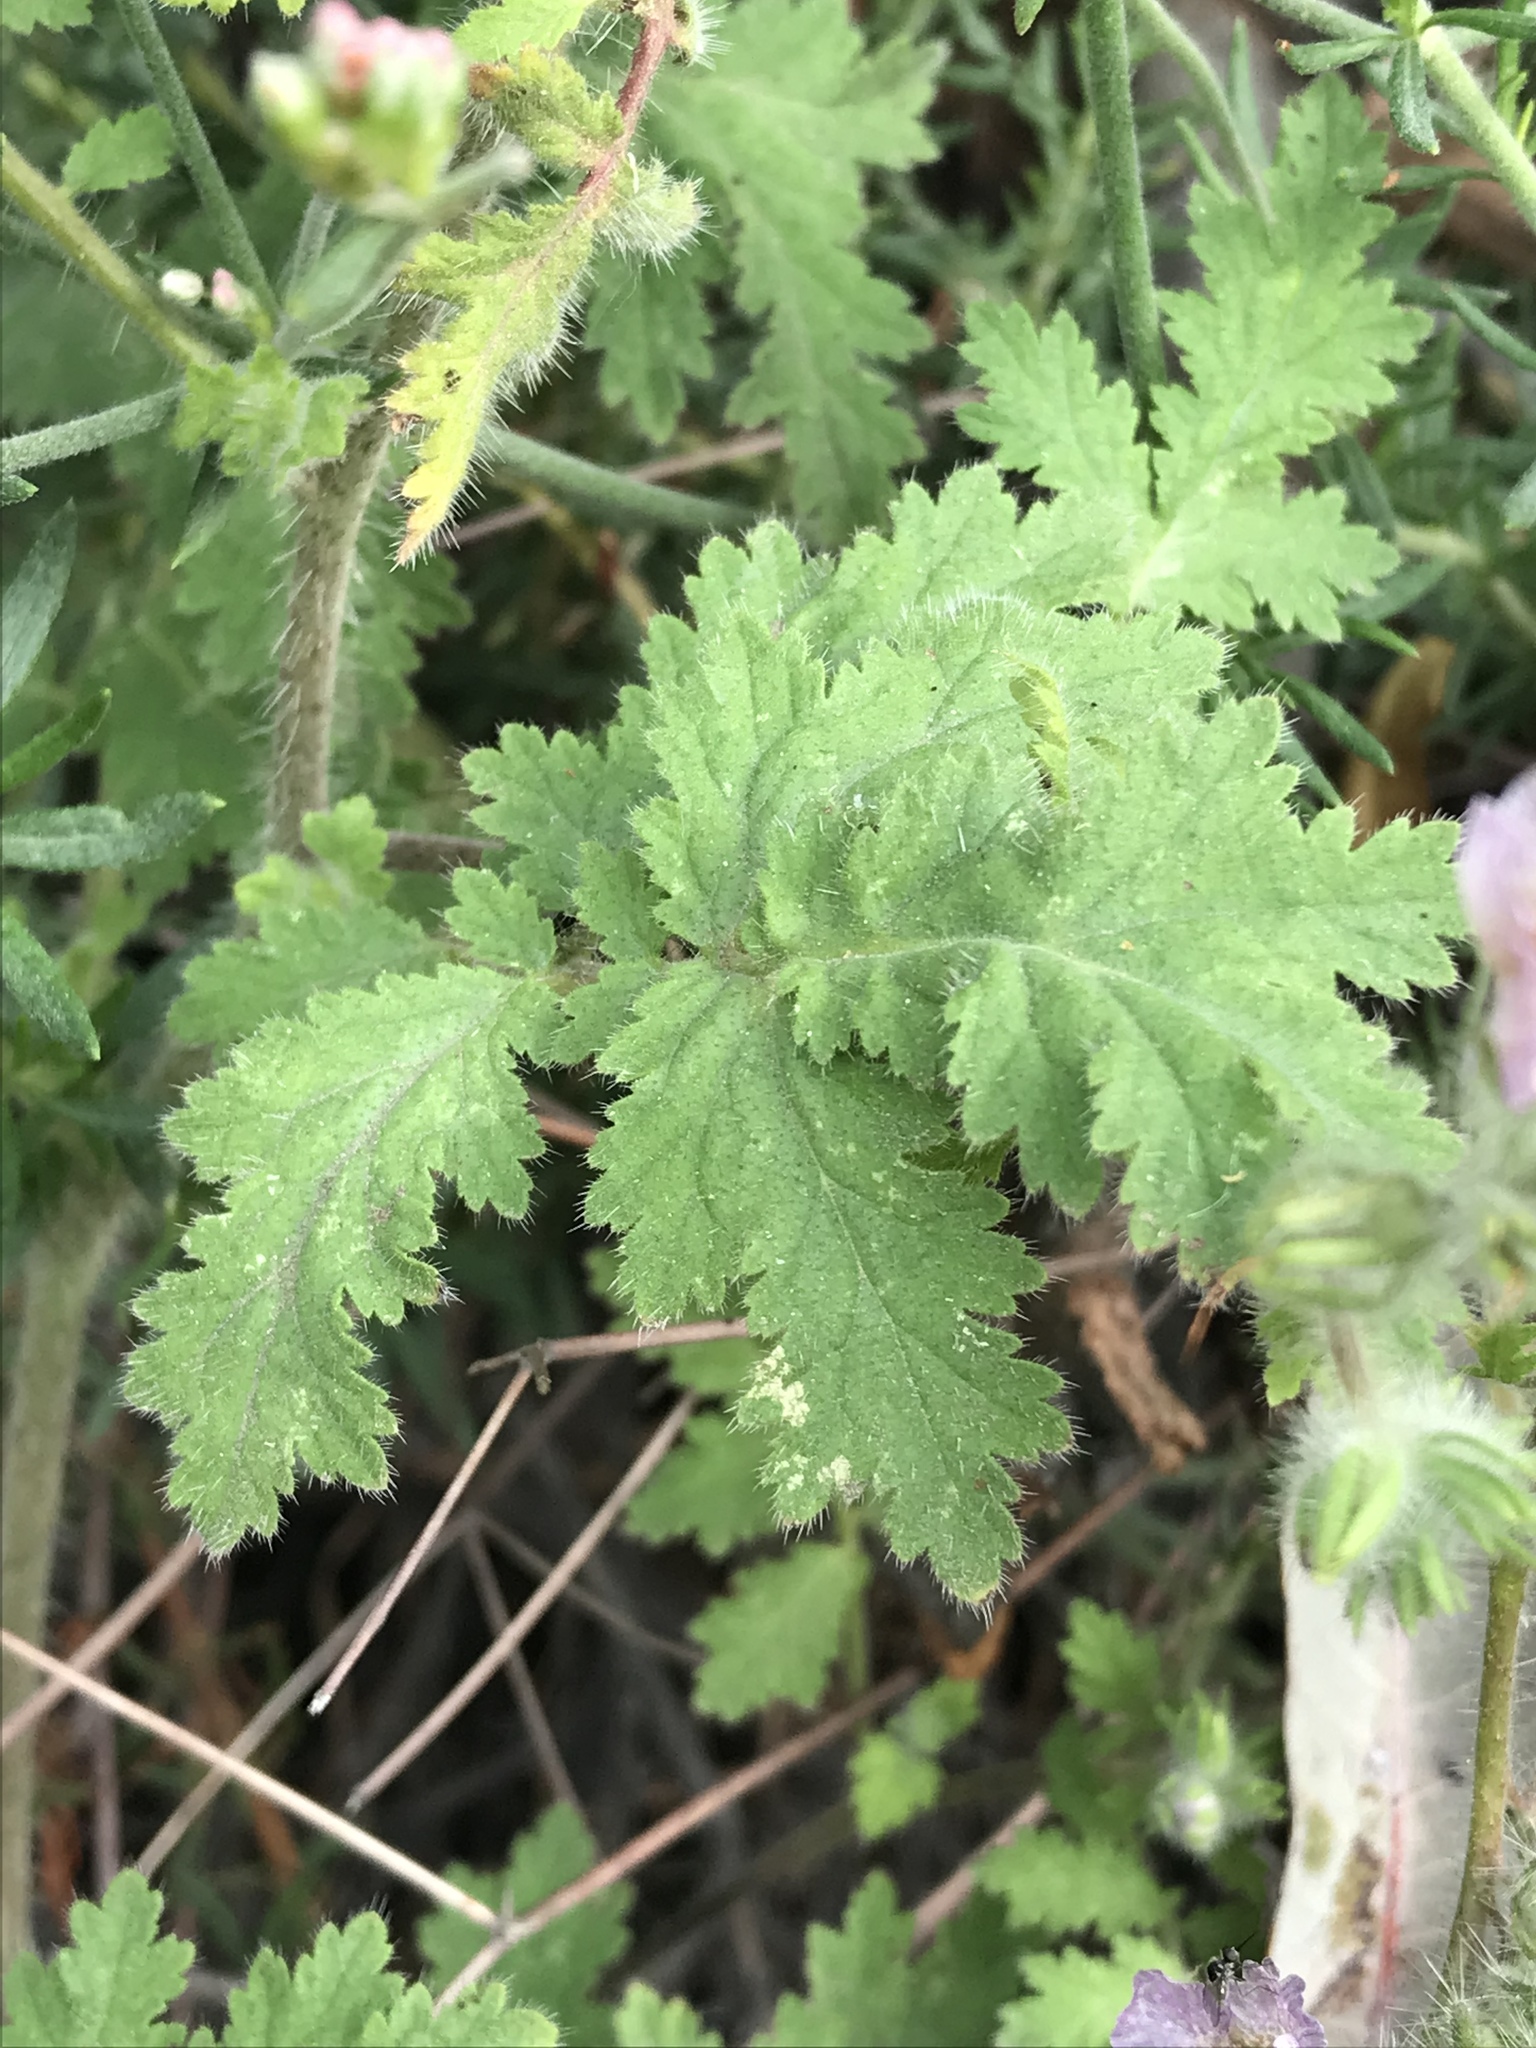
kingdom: Plantae
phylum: Tracheophyta
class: Magnoliopsida
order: Boraginales
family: Hydrophyllaceae
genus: Phacelia
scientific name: Phacelia cicutaria
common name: Caterpillar phacelia
